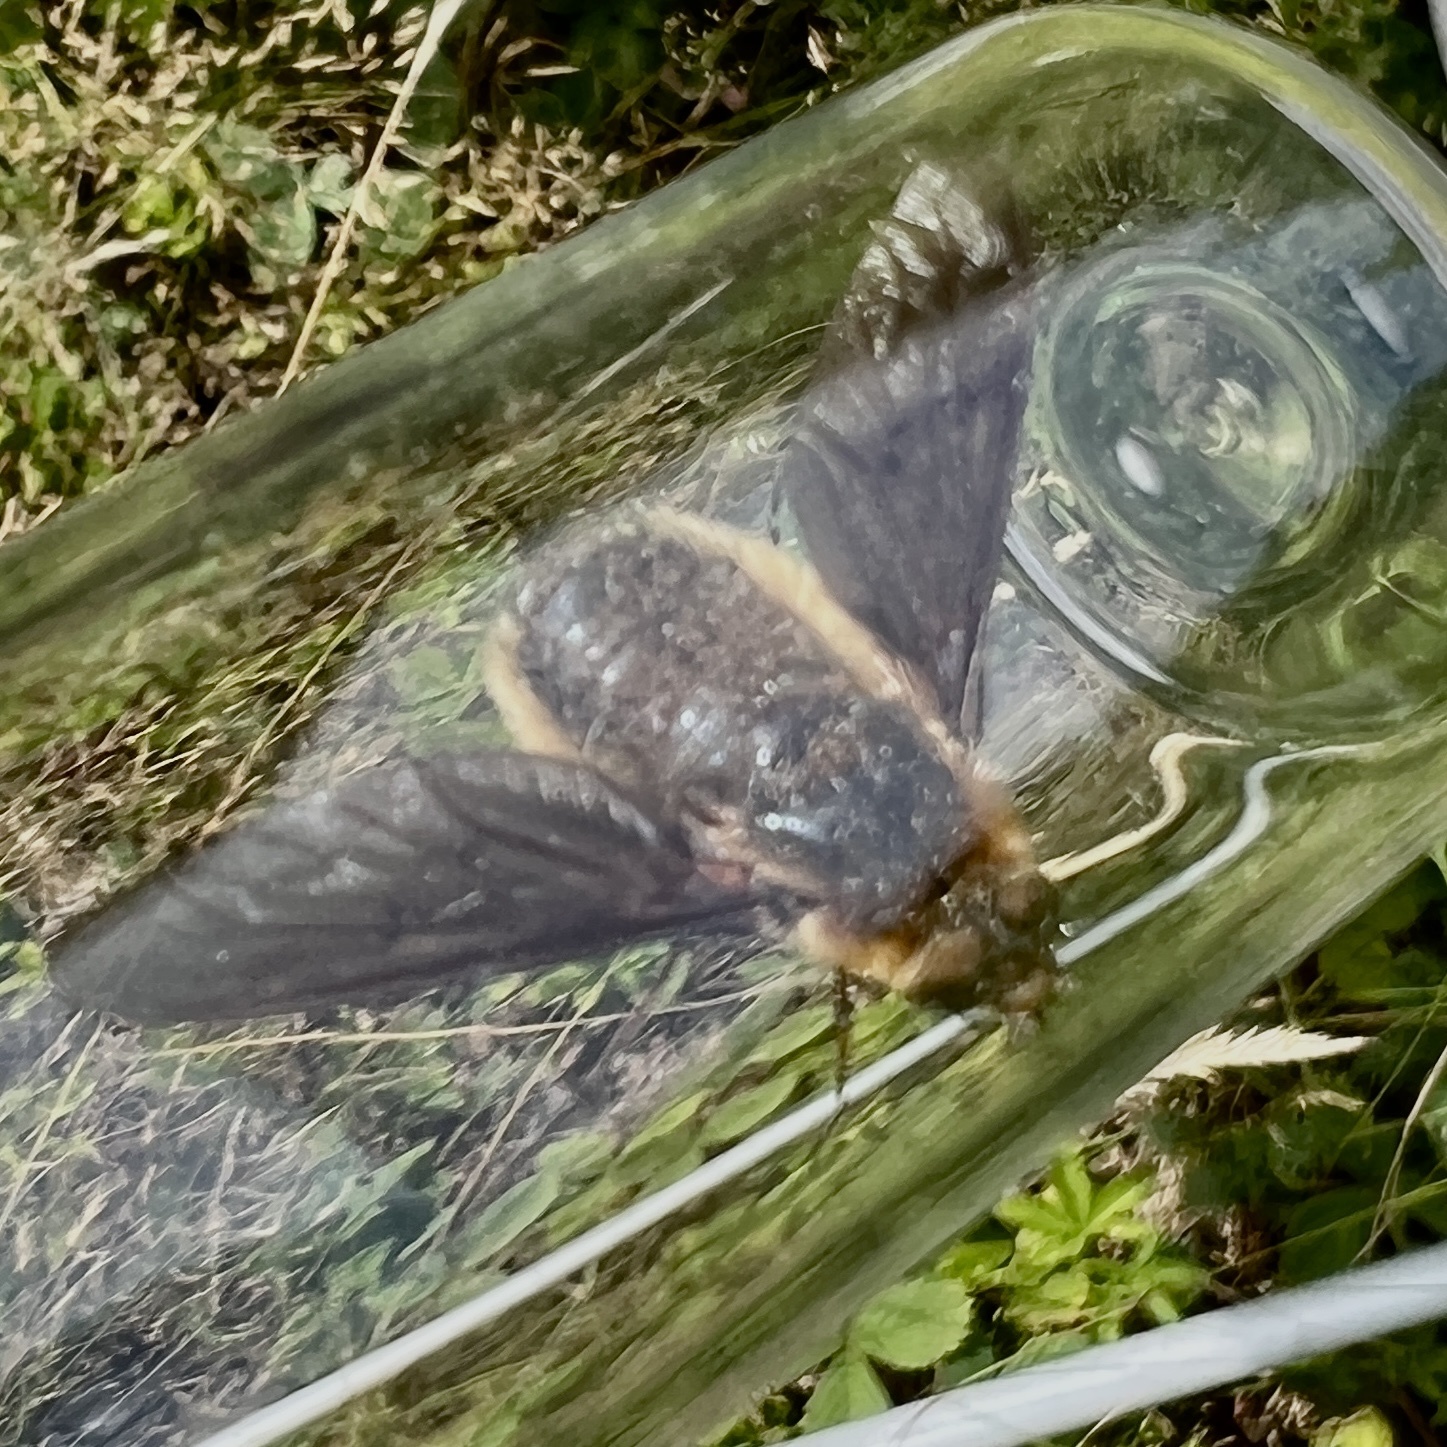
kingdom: Animalia
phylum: Arthropoda
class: Insecta
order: Diptera
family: Bombyliidae
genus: Poecilanthrax
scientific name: Poecilanthrax tegminipennis
